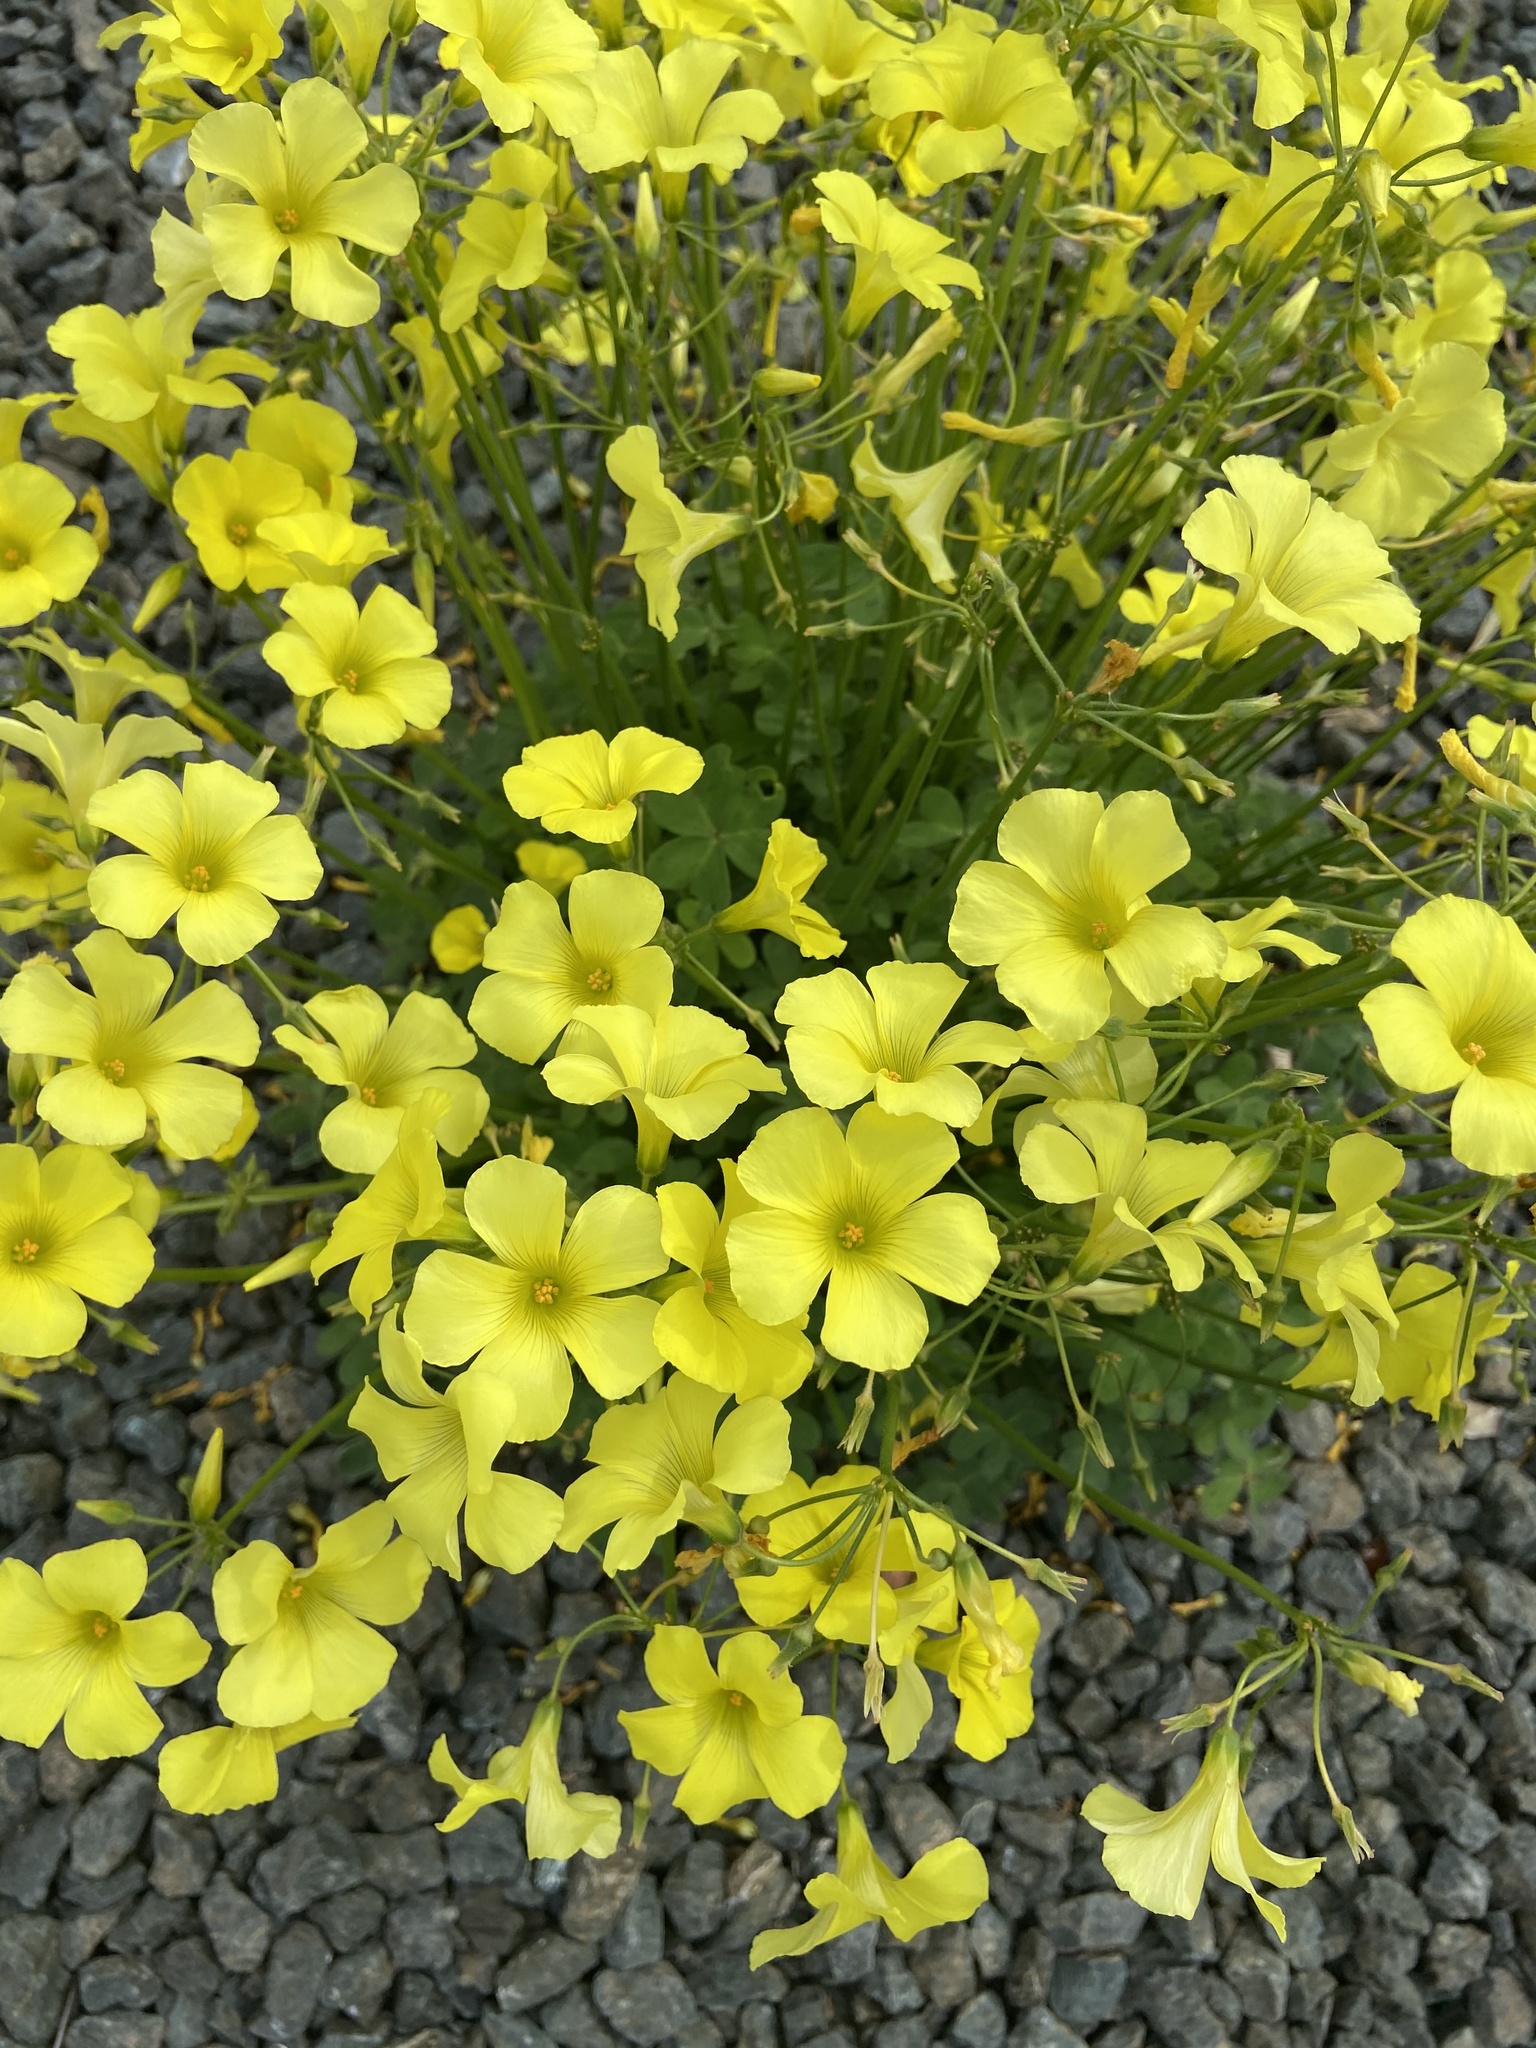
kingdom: Plantae
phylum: Tracheophyta
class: Magnoliopsida
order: Oxalidales
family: Oxalidaceae
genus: Oxalis
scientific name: Oxalis pes-caprae
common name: Bermuda-buttercup
